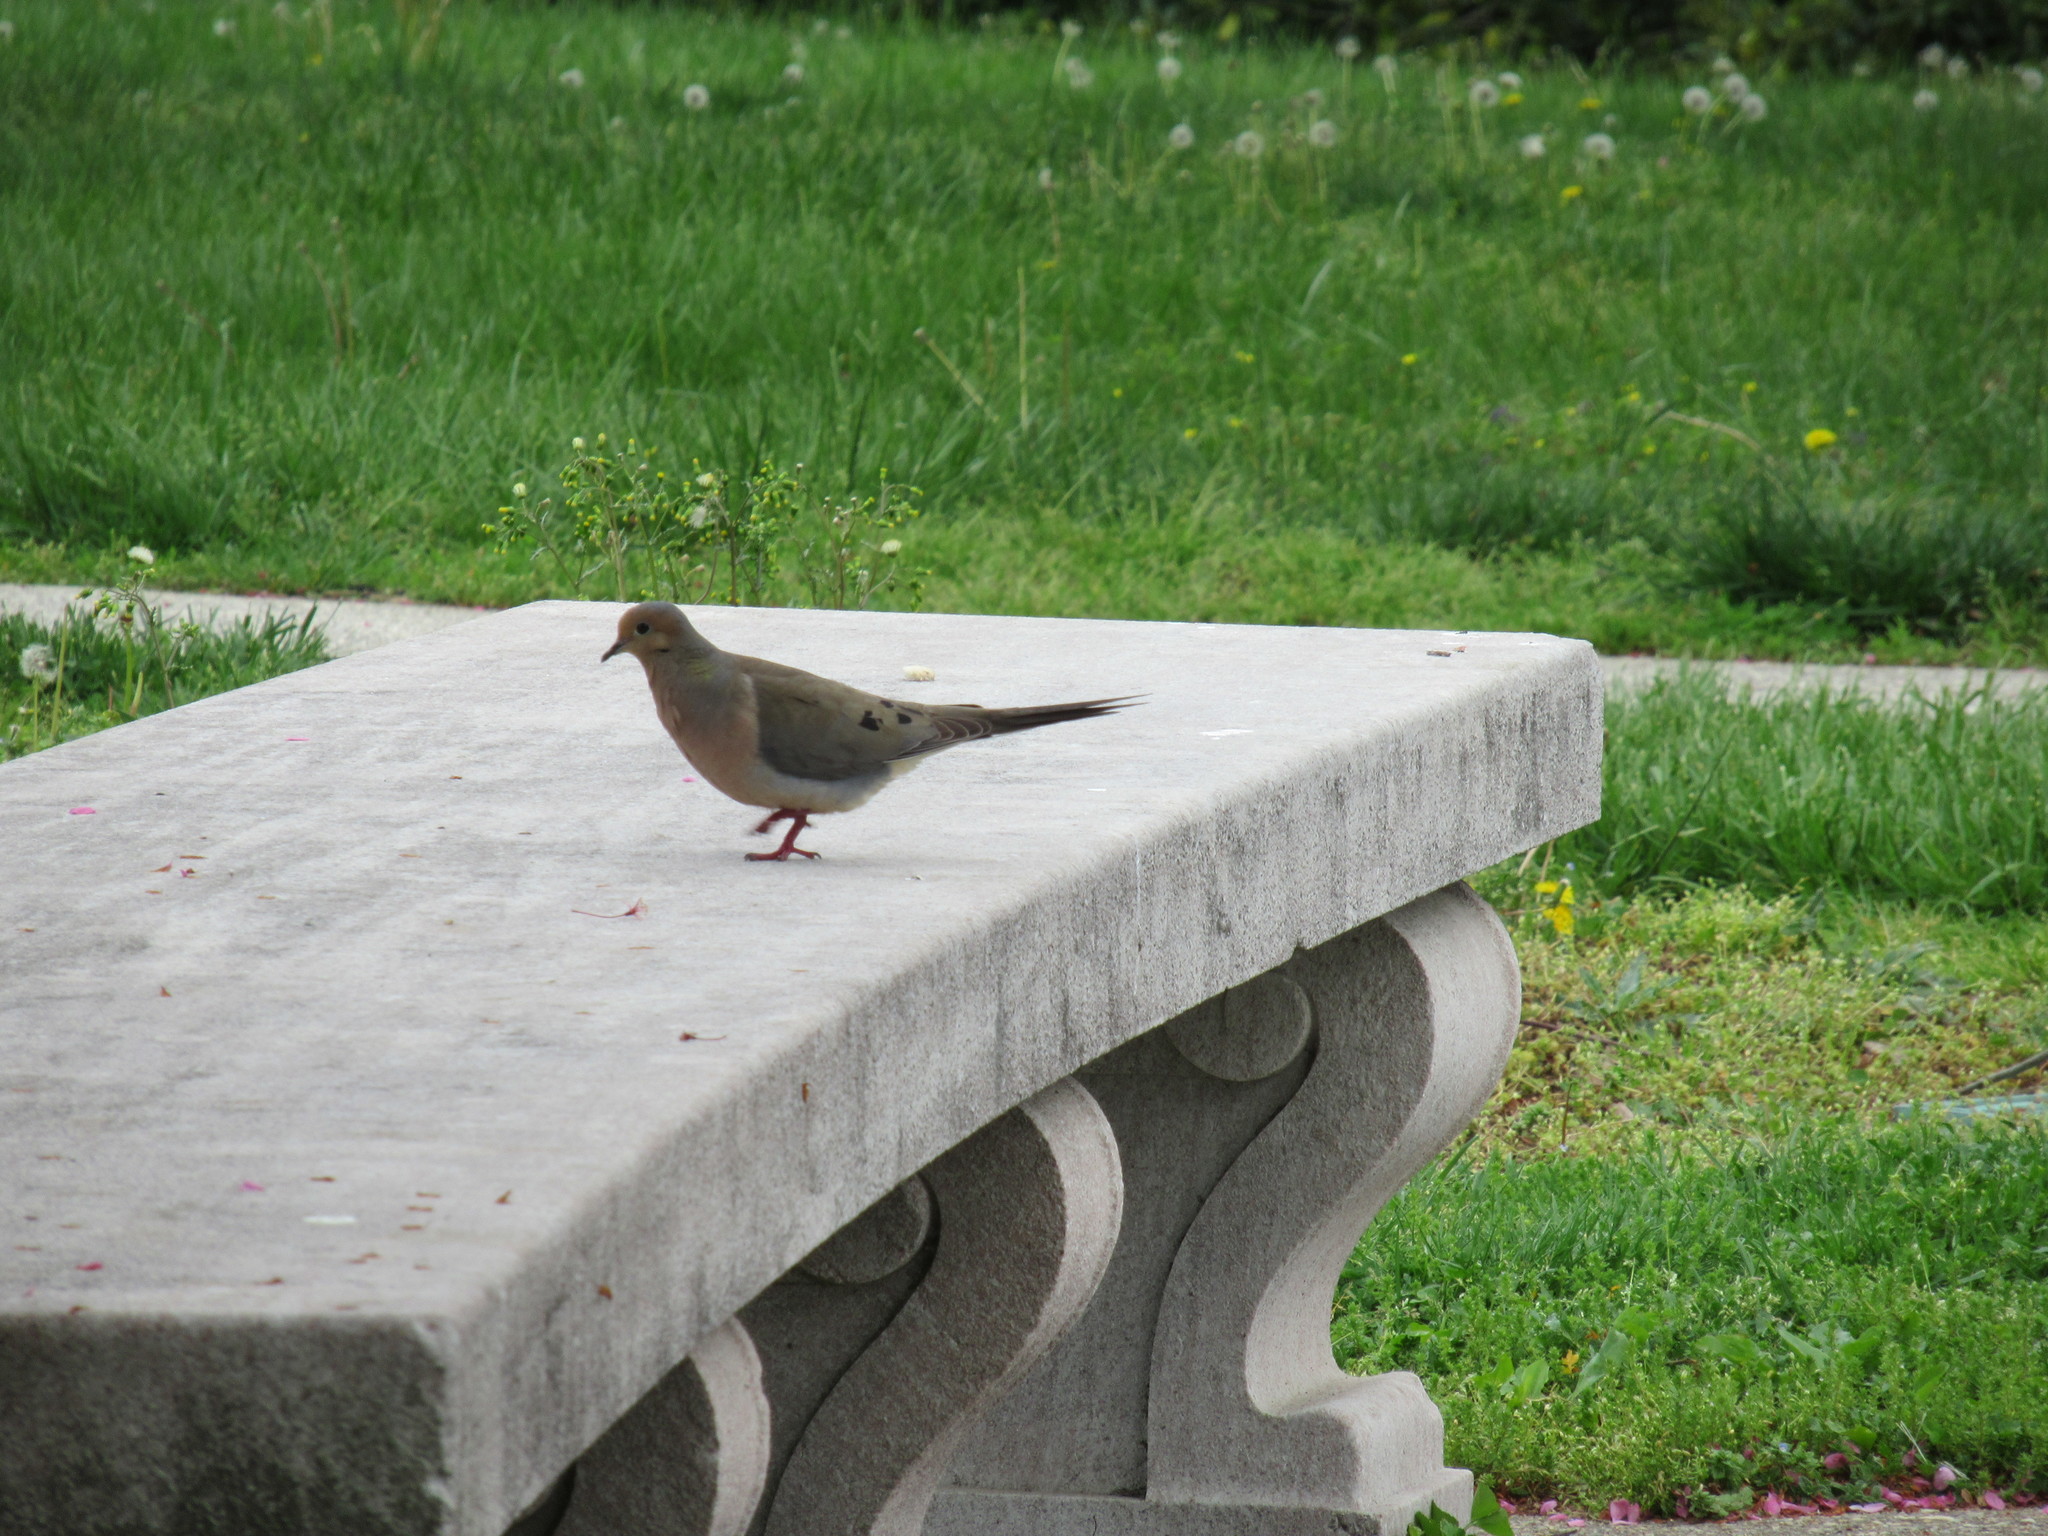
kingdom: Animalia
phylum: Chordata
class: Aves
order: Columbiformes
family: Columbidae
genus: Zenaida
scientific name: Zenaida macroura
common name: Mourning dove
